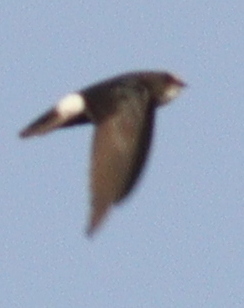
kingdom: Animalia
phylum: Chordata
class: Aves
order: Apodiformes
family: Apodidae
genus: Apus
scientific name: Apus affinis
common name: Little swift
